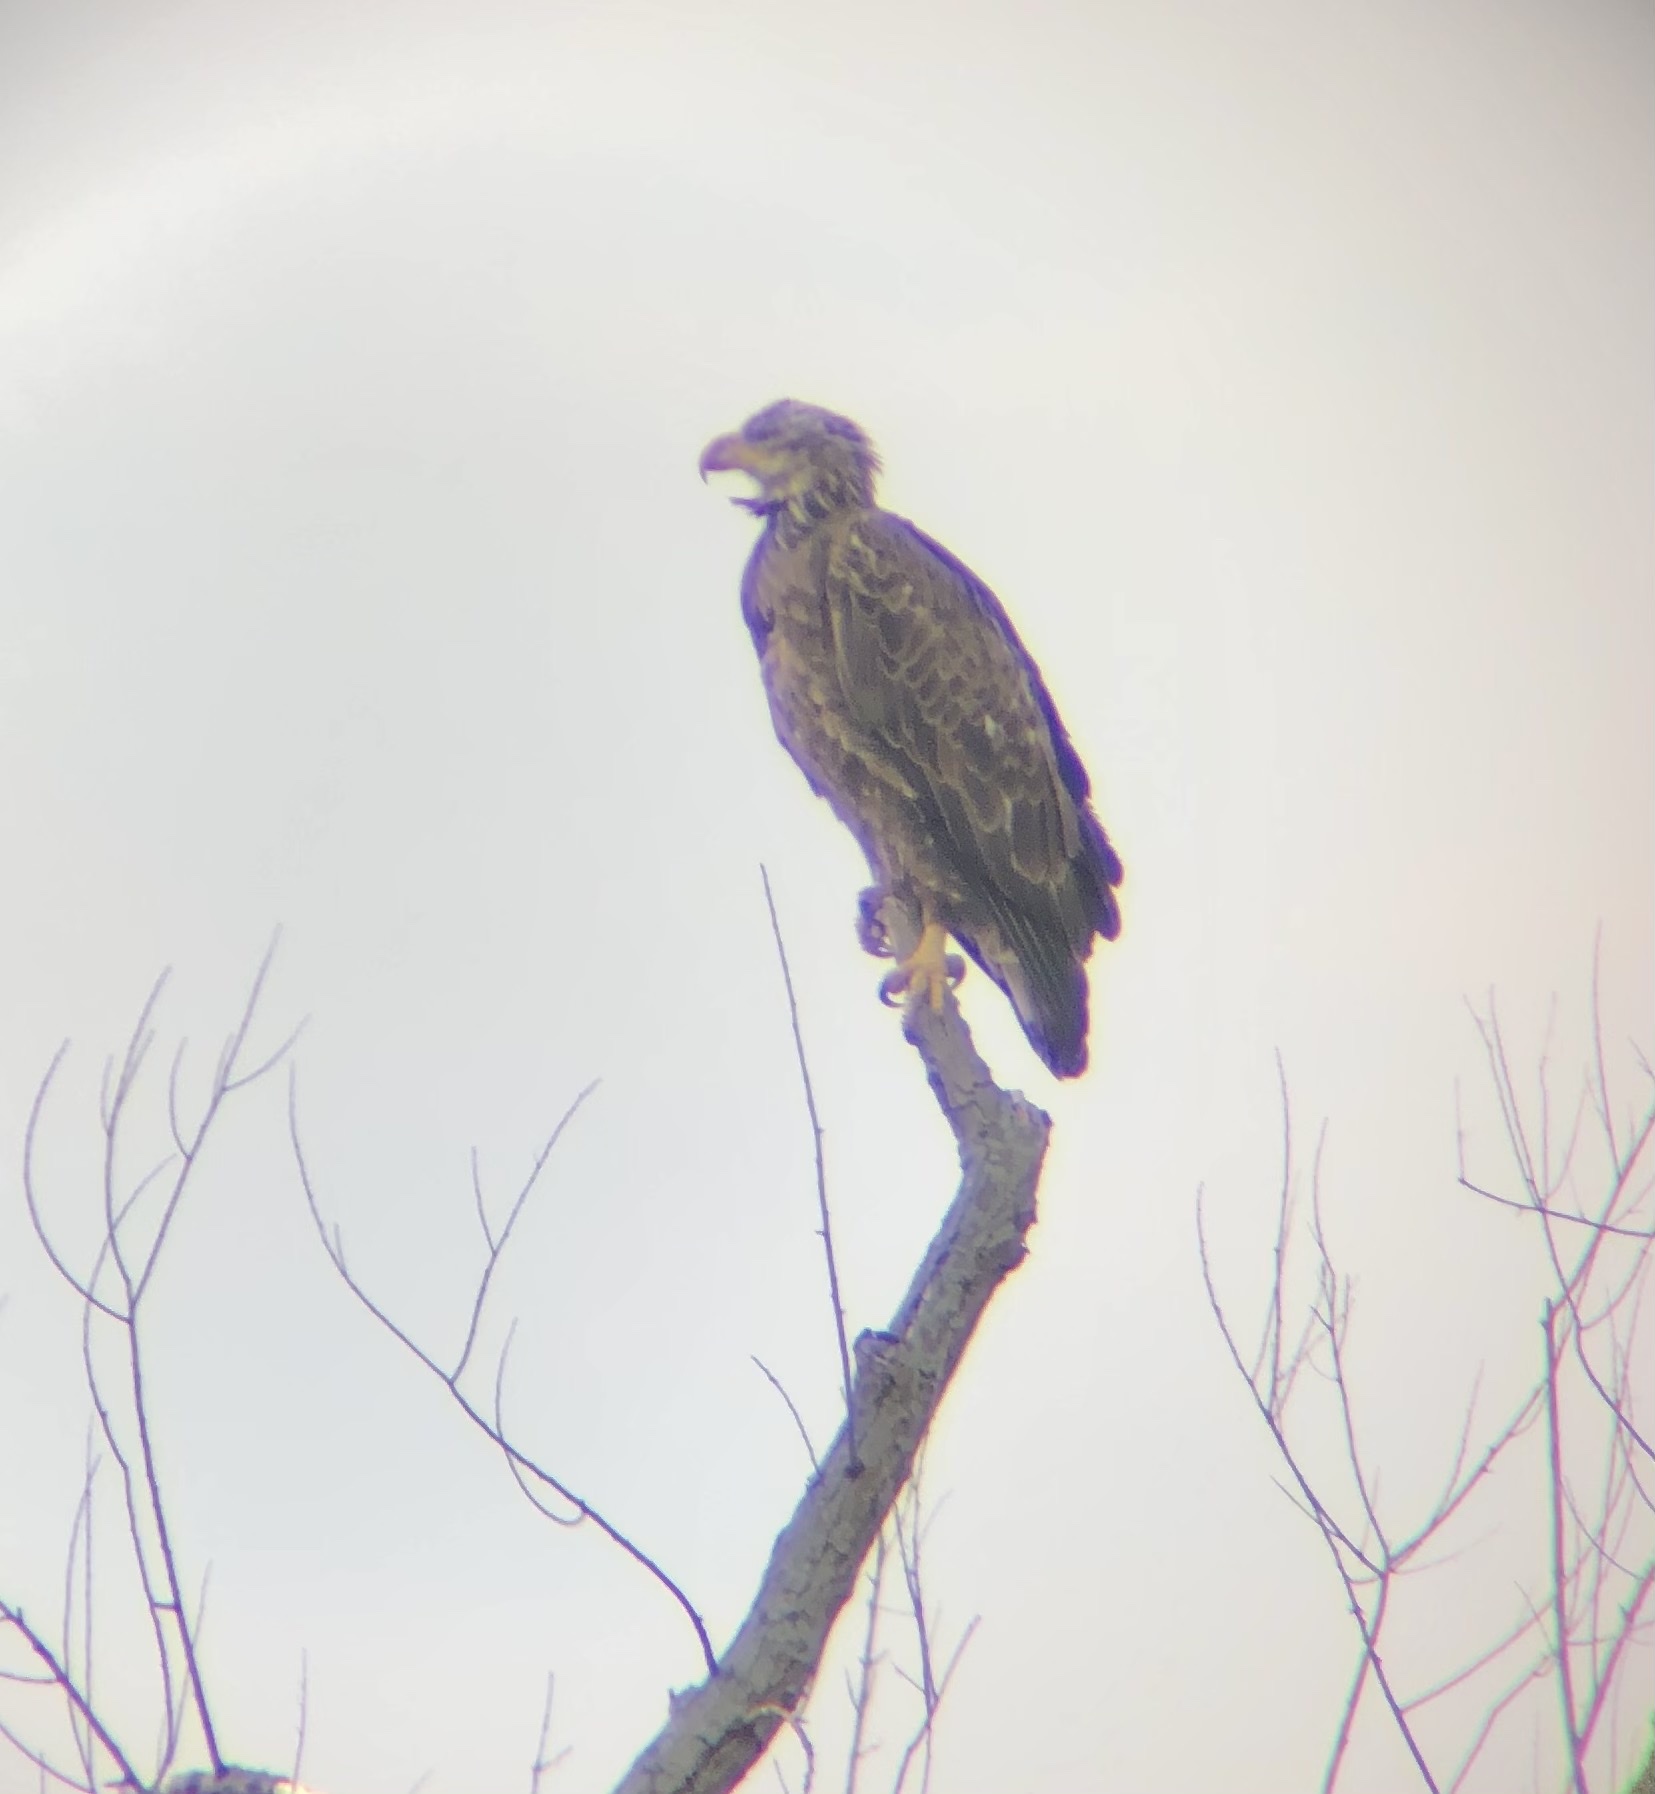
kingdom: Animalia
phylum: Chordata
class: Aves
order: Accipitriformes
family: Accipitridae
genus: Haliaeetus
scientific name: Haliaeetus leucocephalus
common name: Bald eagle
